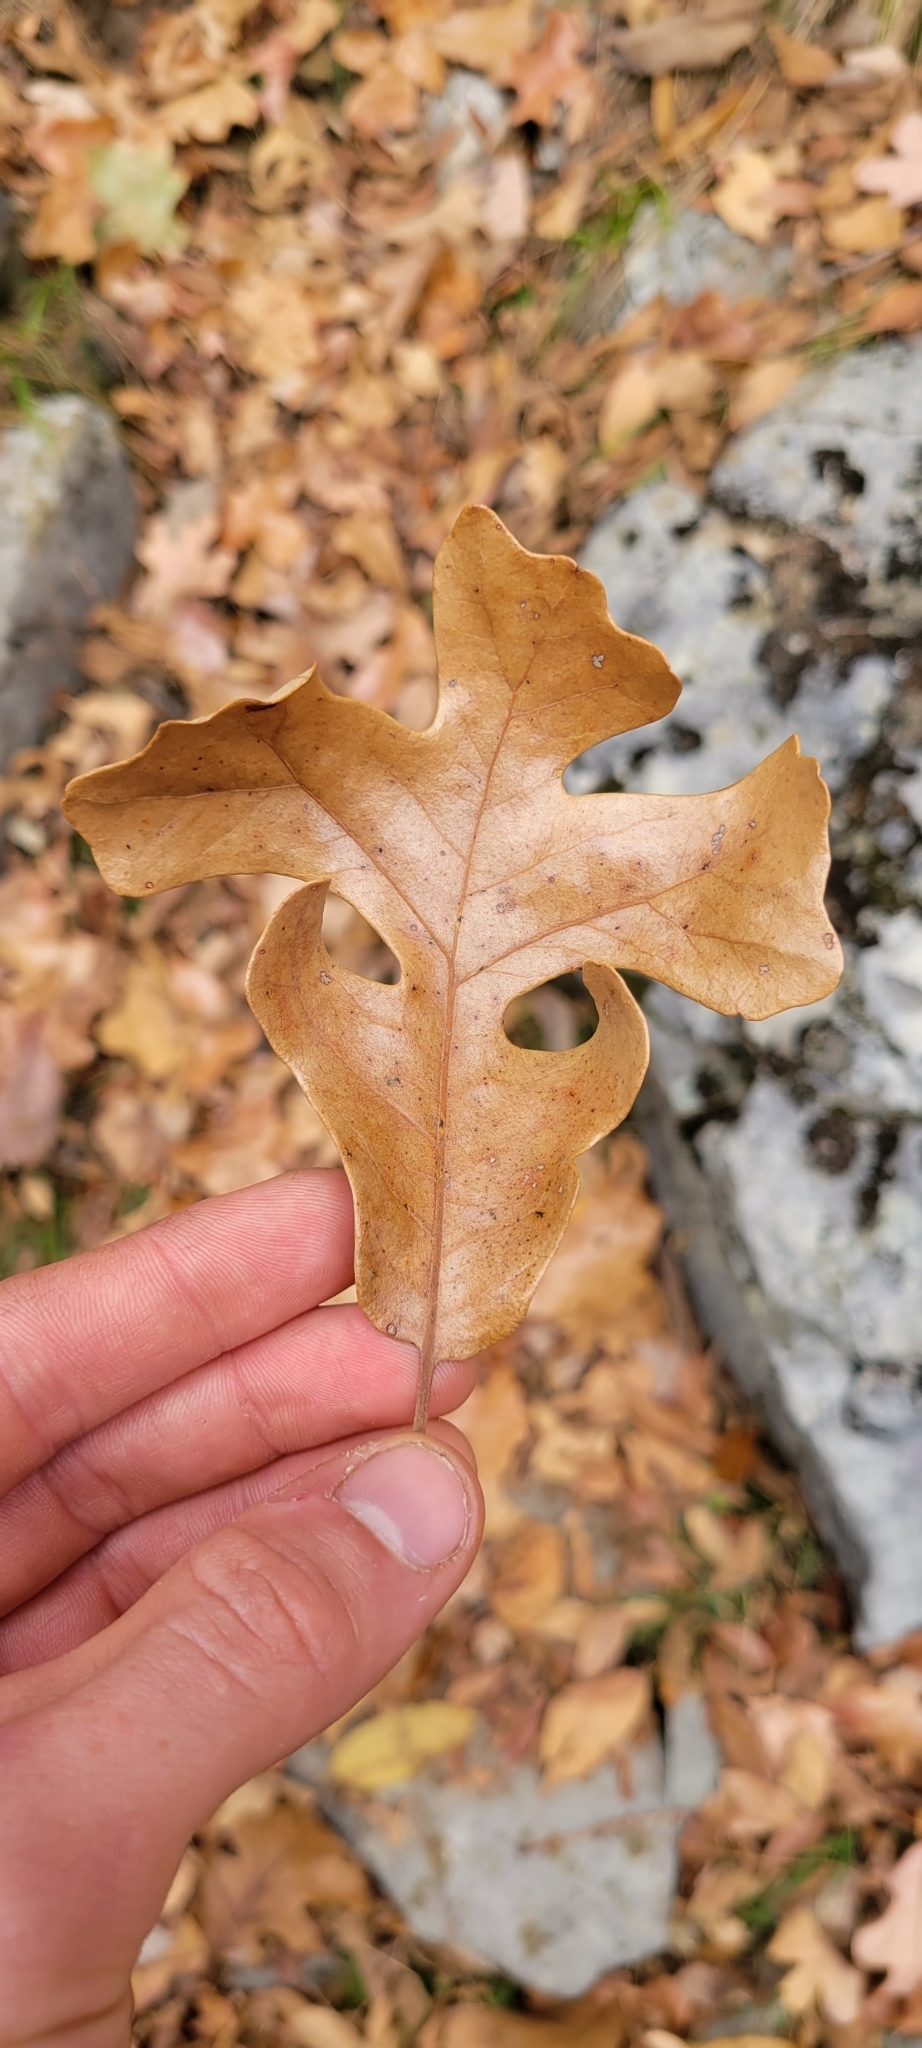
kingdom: Plantae
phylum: Tracheophyta
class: Magnoliopsida
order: Fagales
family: Fagaceae
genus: Quercus
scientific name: Quercus stellata
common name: Post oak
